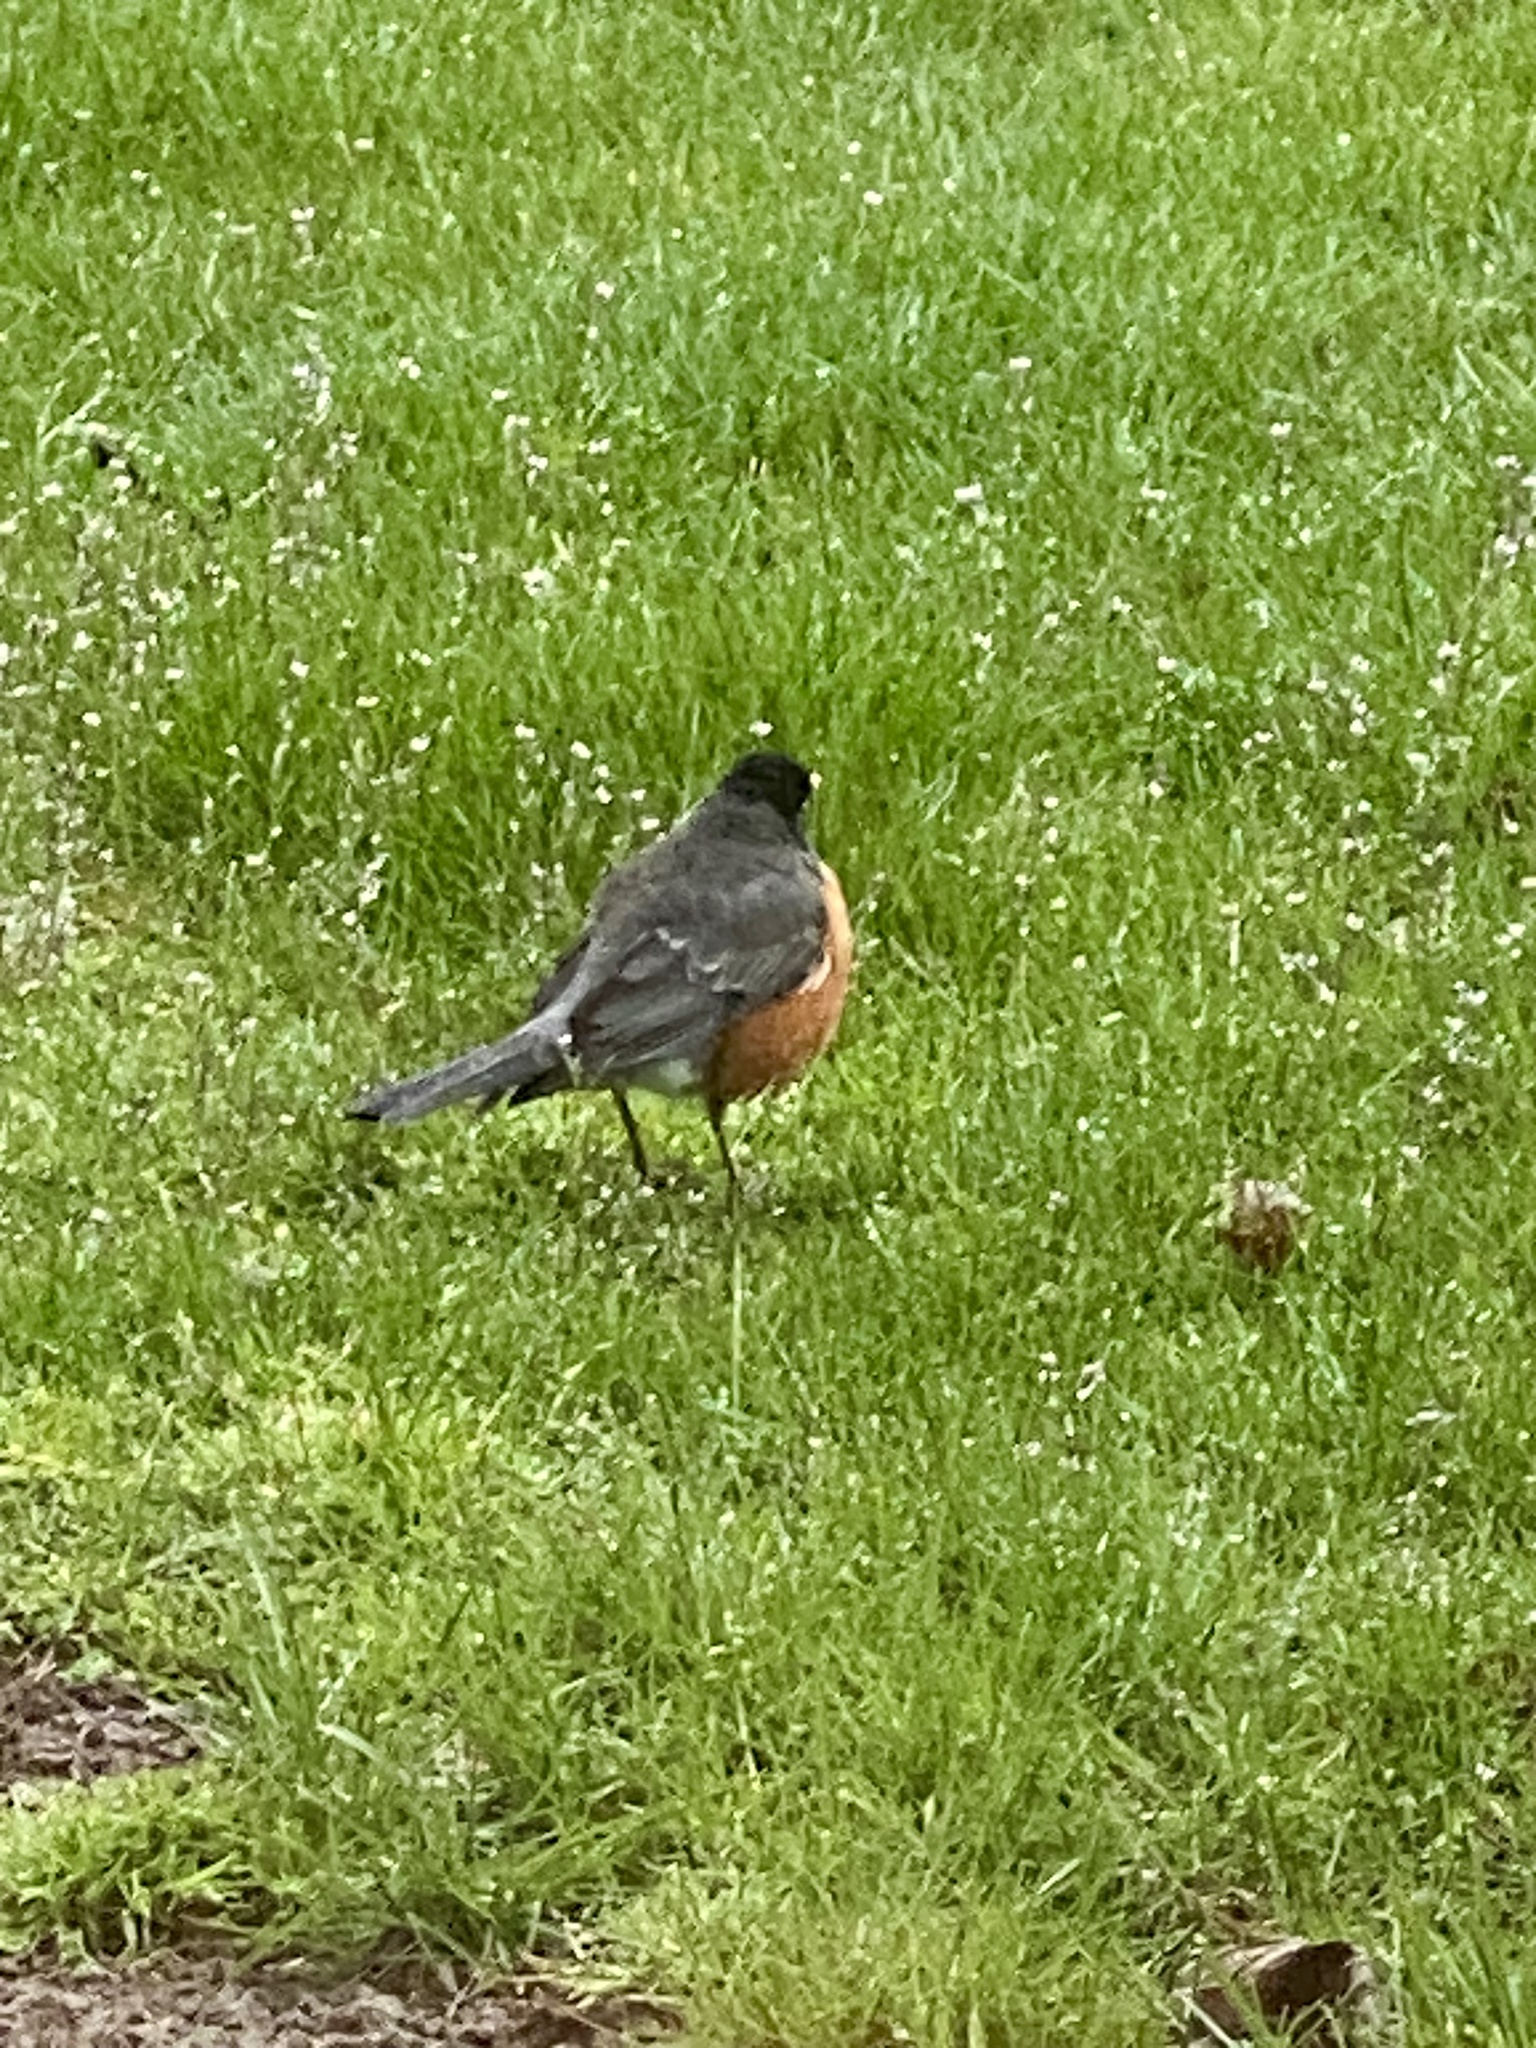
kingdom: Animalia
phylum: Chordata
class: Aves
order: Passeriformes
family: Turdidae
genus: Turdus
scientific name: Turdus migratorius
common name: American robin
